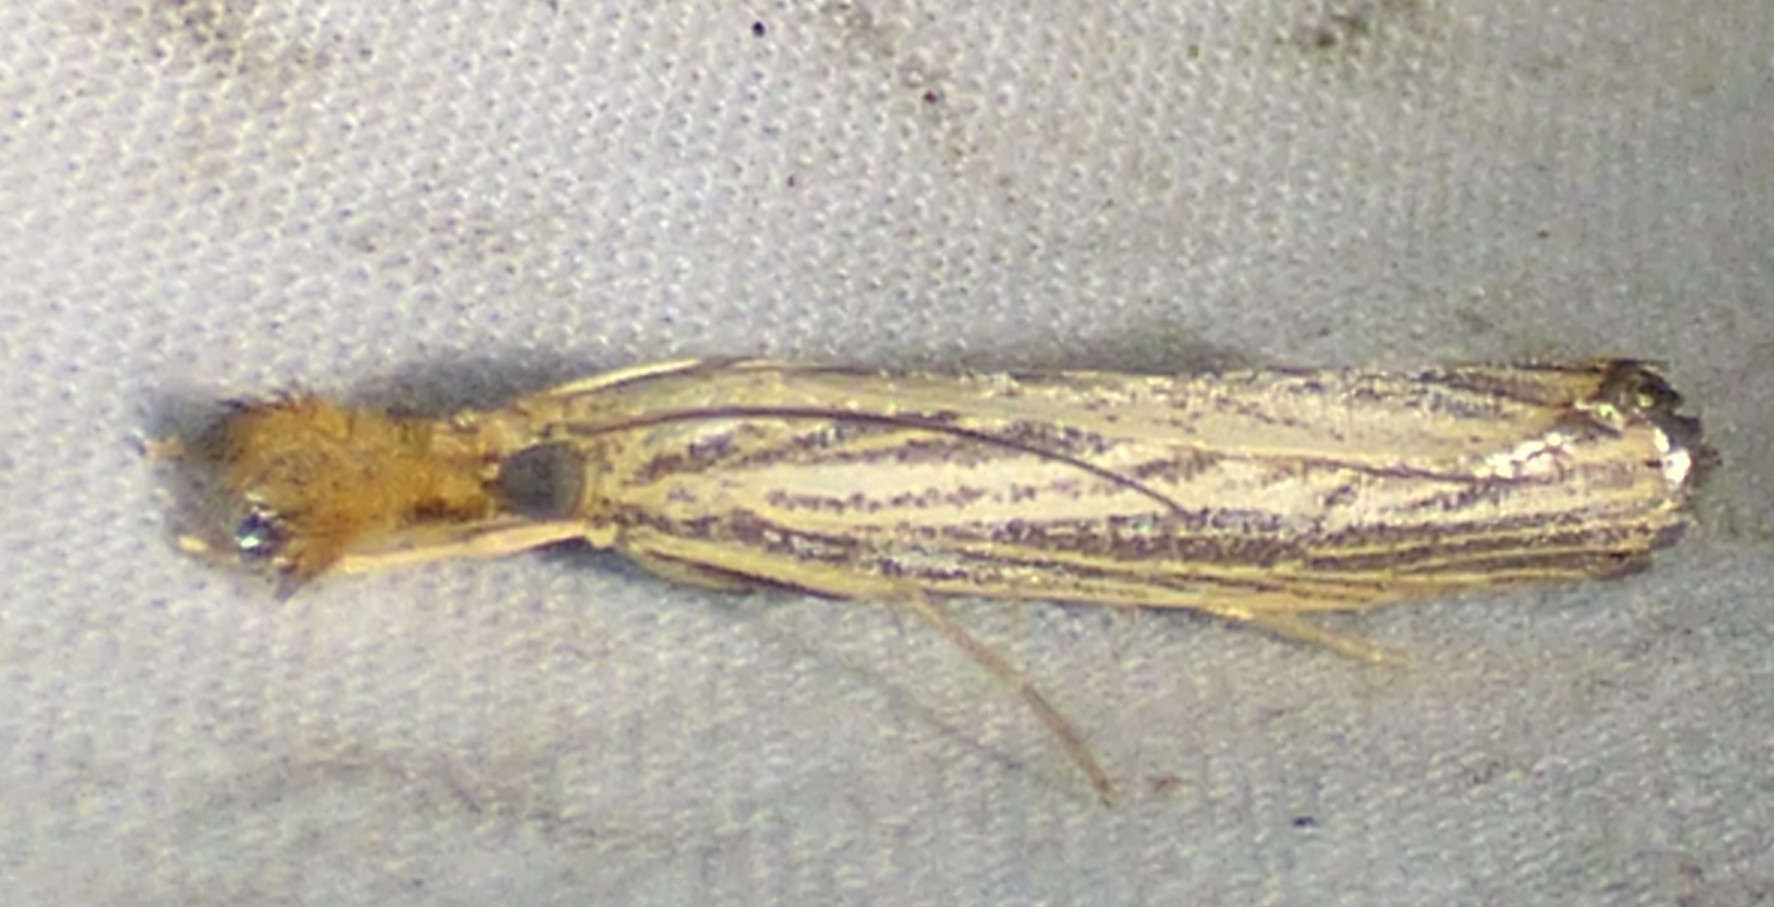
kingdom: Animalia
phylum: Arthropoda
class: Insecta
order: Lepidoptera
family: Crambidae
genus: Agriphila
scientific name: Agriphila vulgivagellus
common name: Vagabond crambus moth
